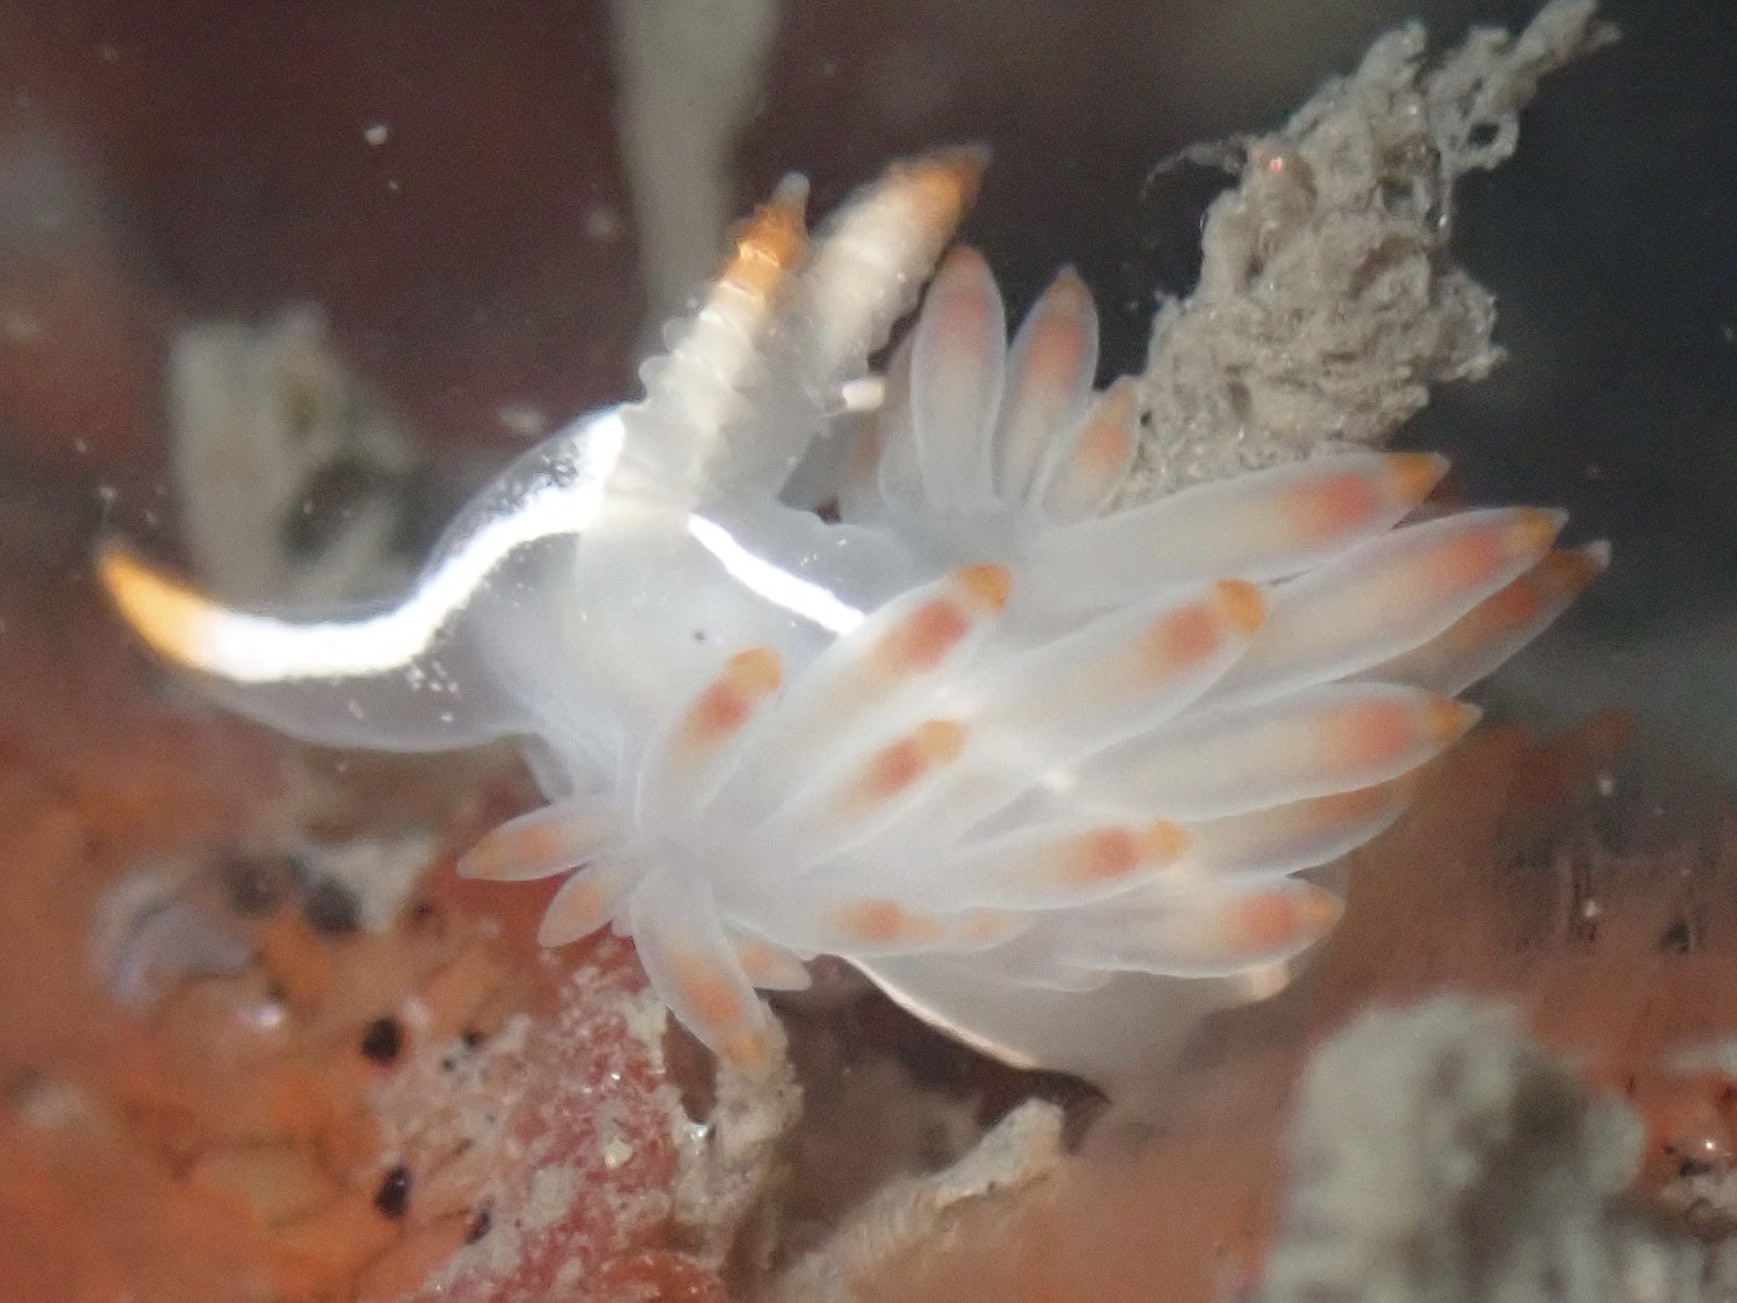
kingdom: Animalia
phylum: Mollusca
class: Gastropoda
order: Nudibranchia
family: Coryphellidae
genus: Coryphella
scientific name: Coryphella trilineata
